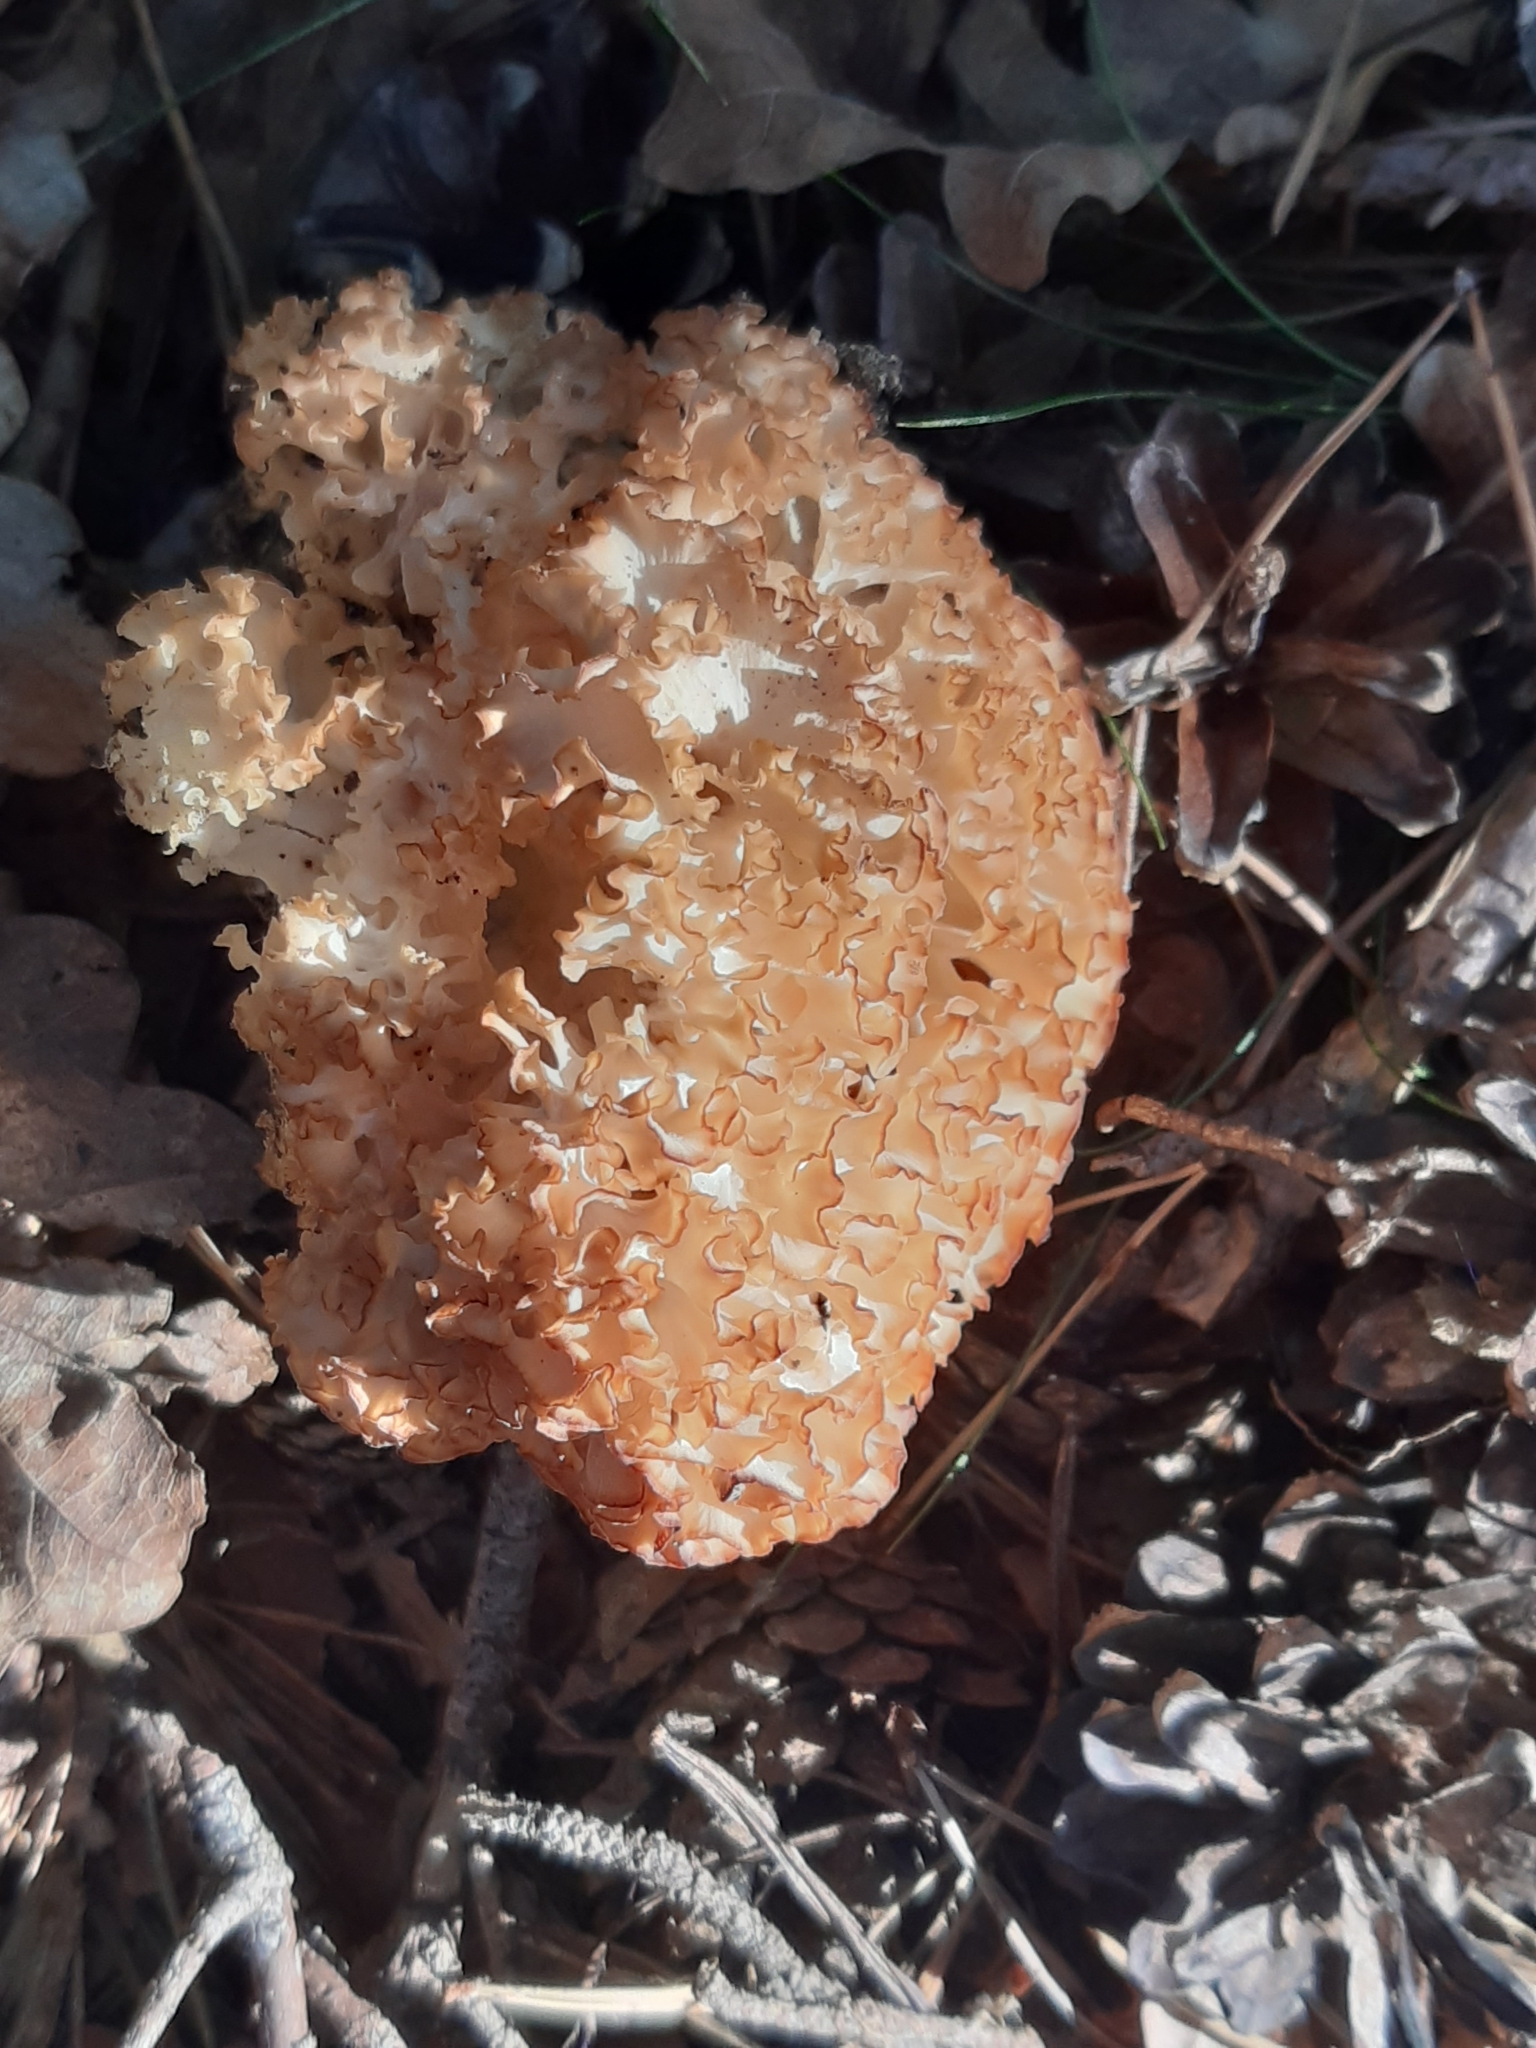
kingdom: Fungi
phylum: Basidiomycota
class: Agaricomycetes
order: Polyporales
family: Sparassidaceae
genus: Sparassis
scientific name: Sparassis crispa
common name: Brain fungus
